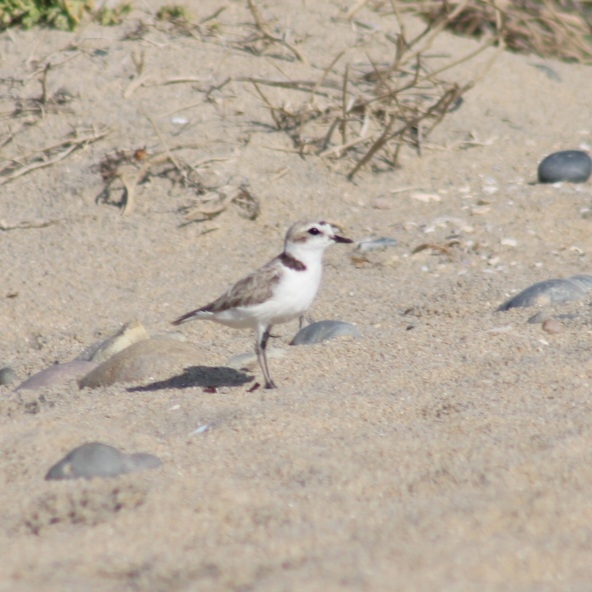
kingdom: Animalia
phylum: Chordata
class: Aves
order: Charadriiformes
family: Charadriidae
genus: Anarhynchus
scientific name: Anarhynchus
